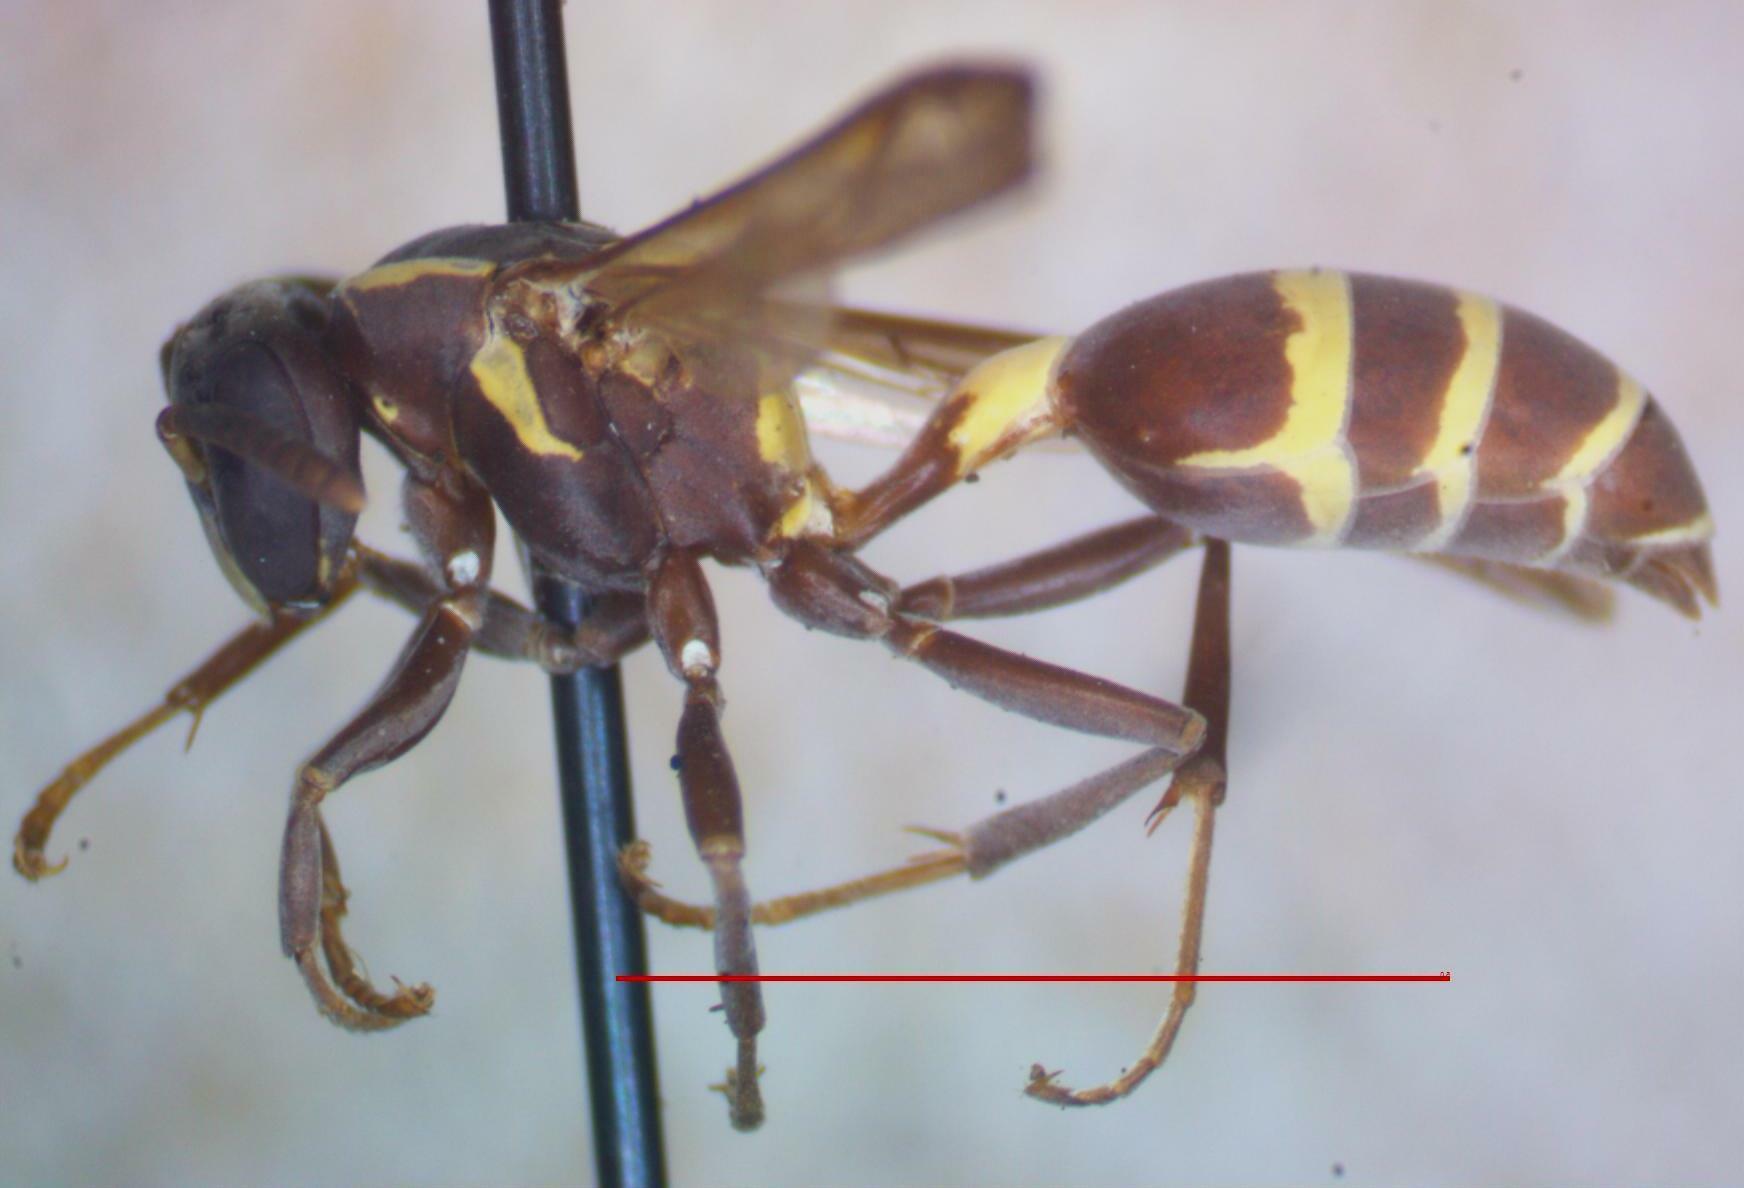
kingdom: Animalia
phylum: Arthropoda
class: Insecta
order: Hymenoptera
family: Eumenidae
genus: Polybia
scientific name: Polybia occidentalis
